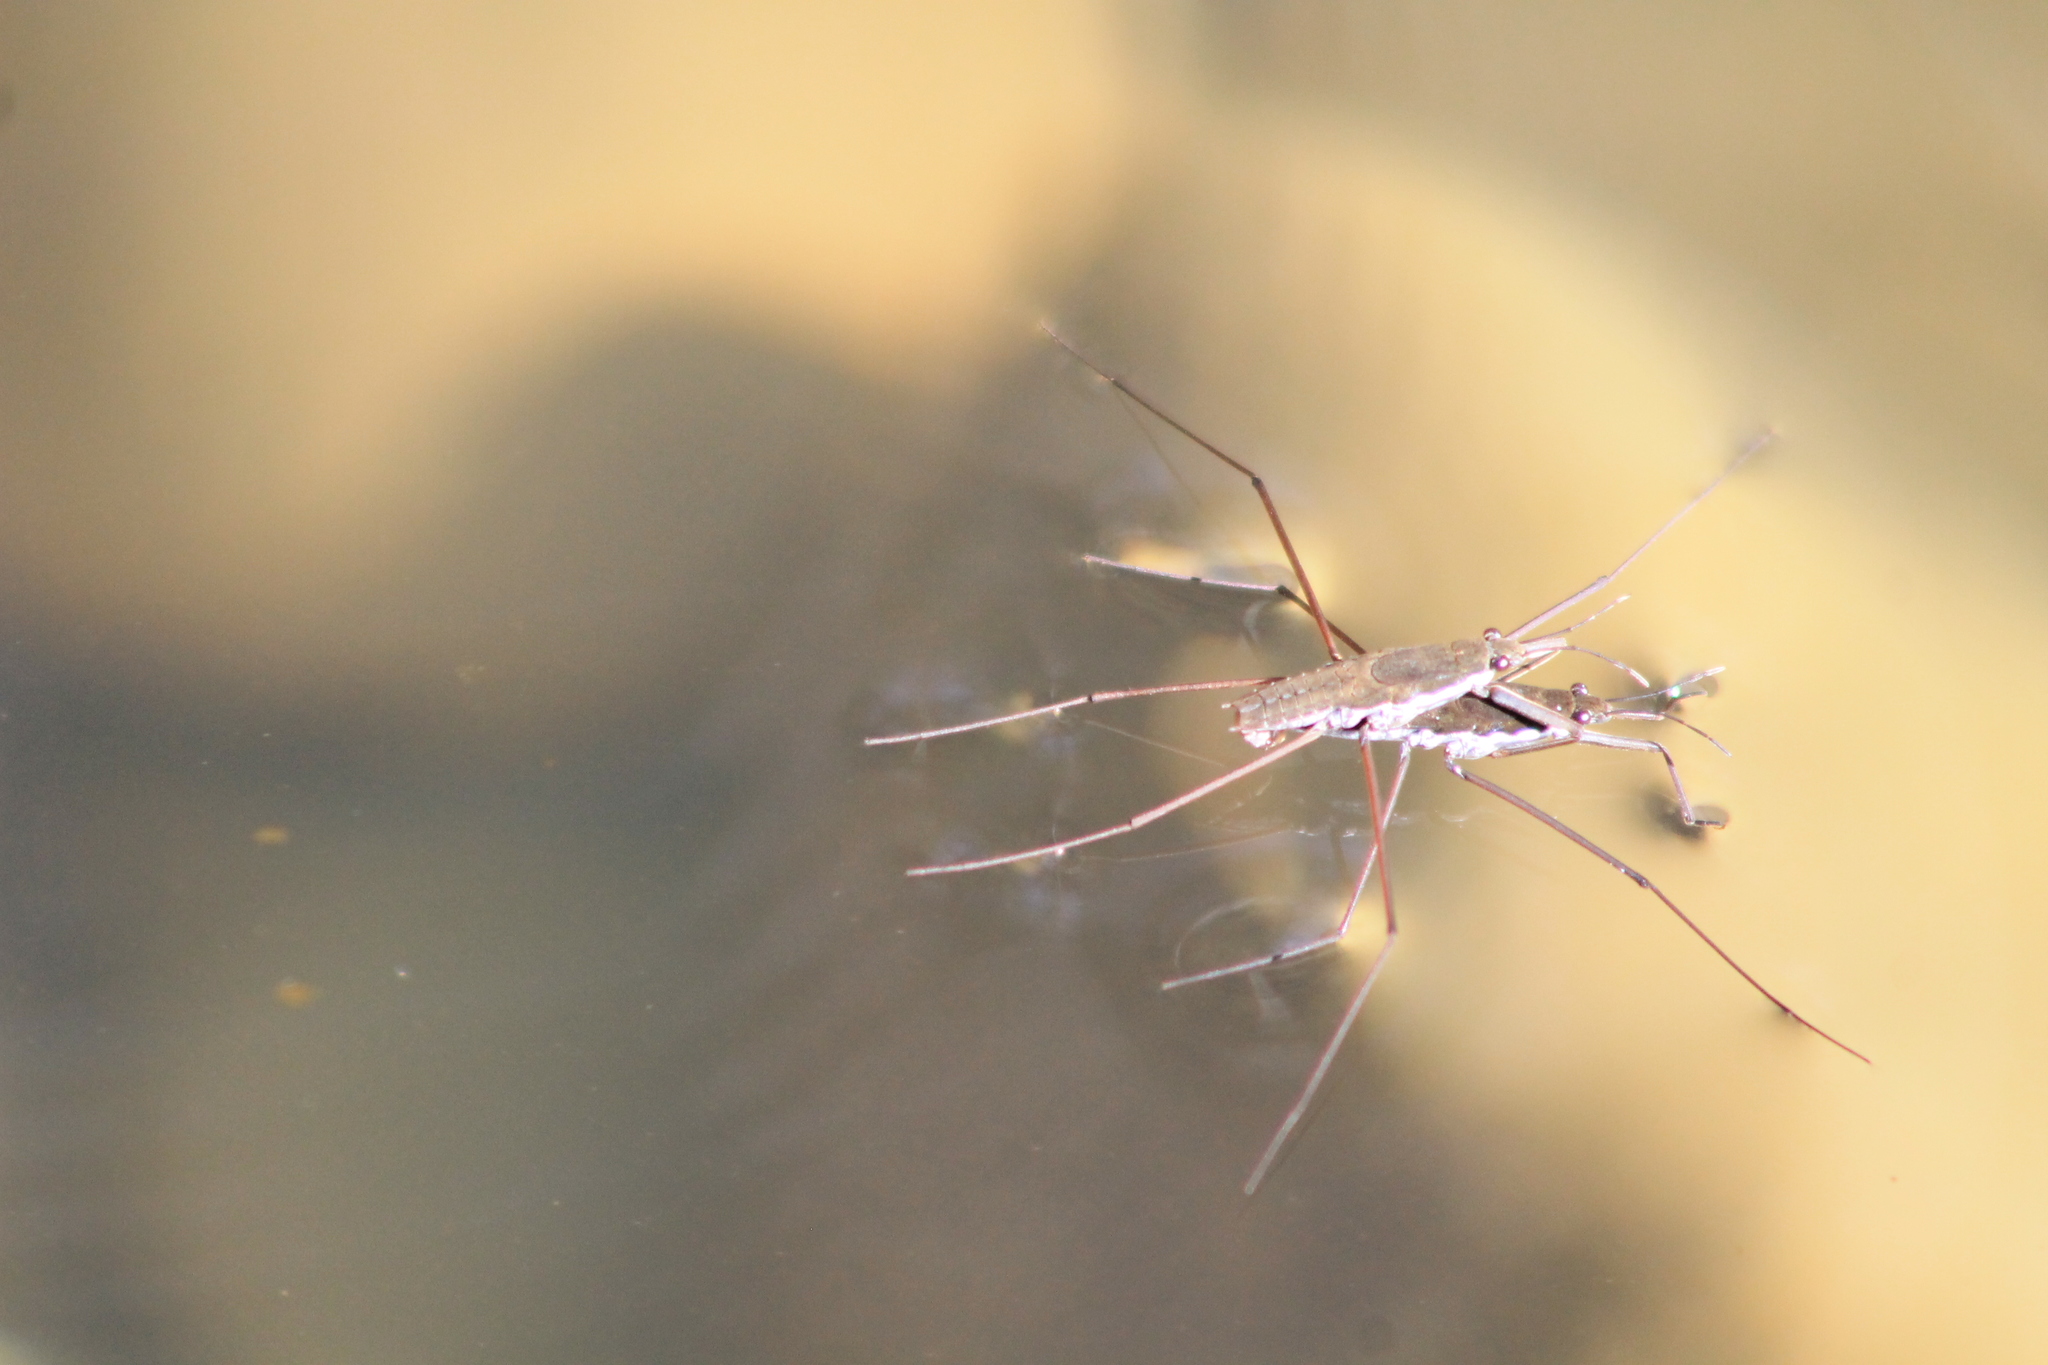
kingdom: Animalia
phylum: Arthropoda
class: Insecta
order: Hemiptera
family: Gerridae
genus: Aquarius
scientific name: Aquarius remigis
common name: Common water strider
